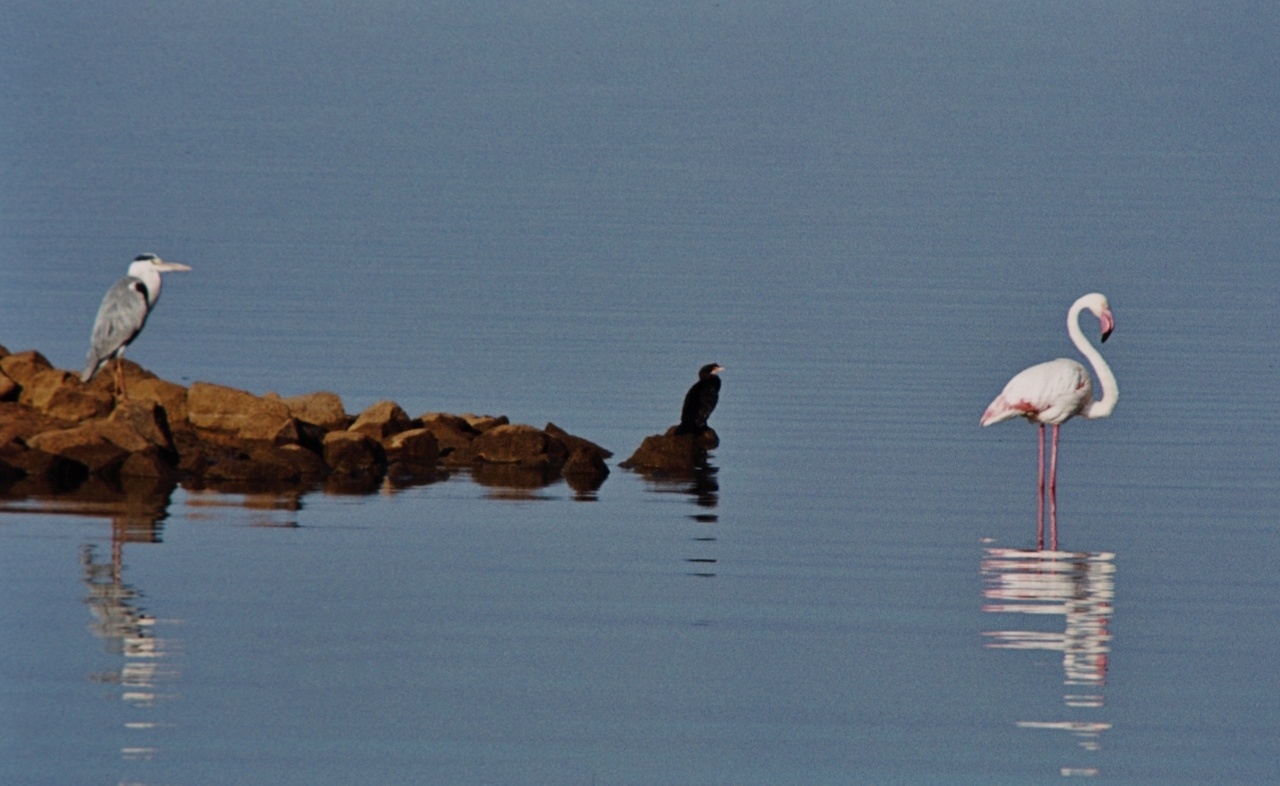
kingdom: Animalia
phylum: Chordata
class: Aves
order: Phoenicopteriformes
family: Phoenicopteridae
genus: Phoenicopterus
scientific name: Phoenicopterus roseus
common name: Greater flamingo
